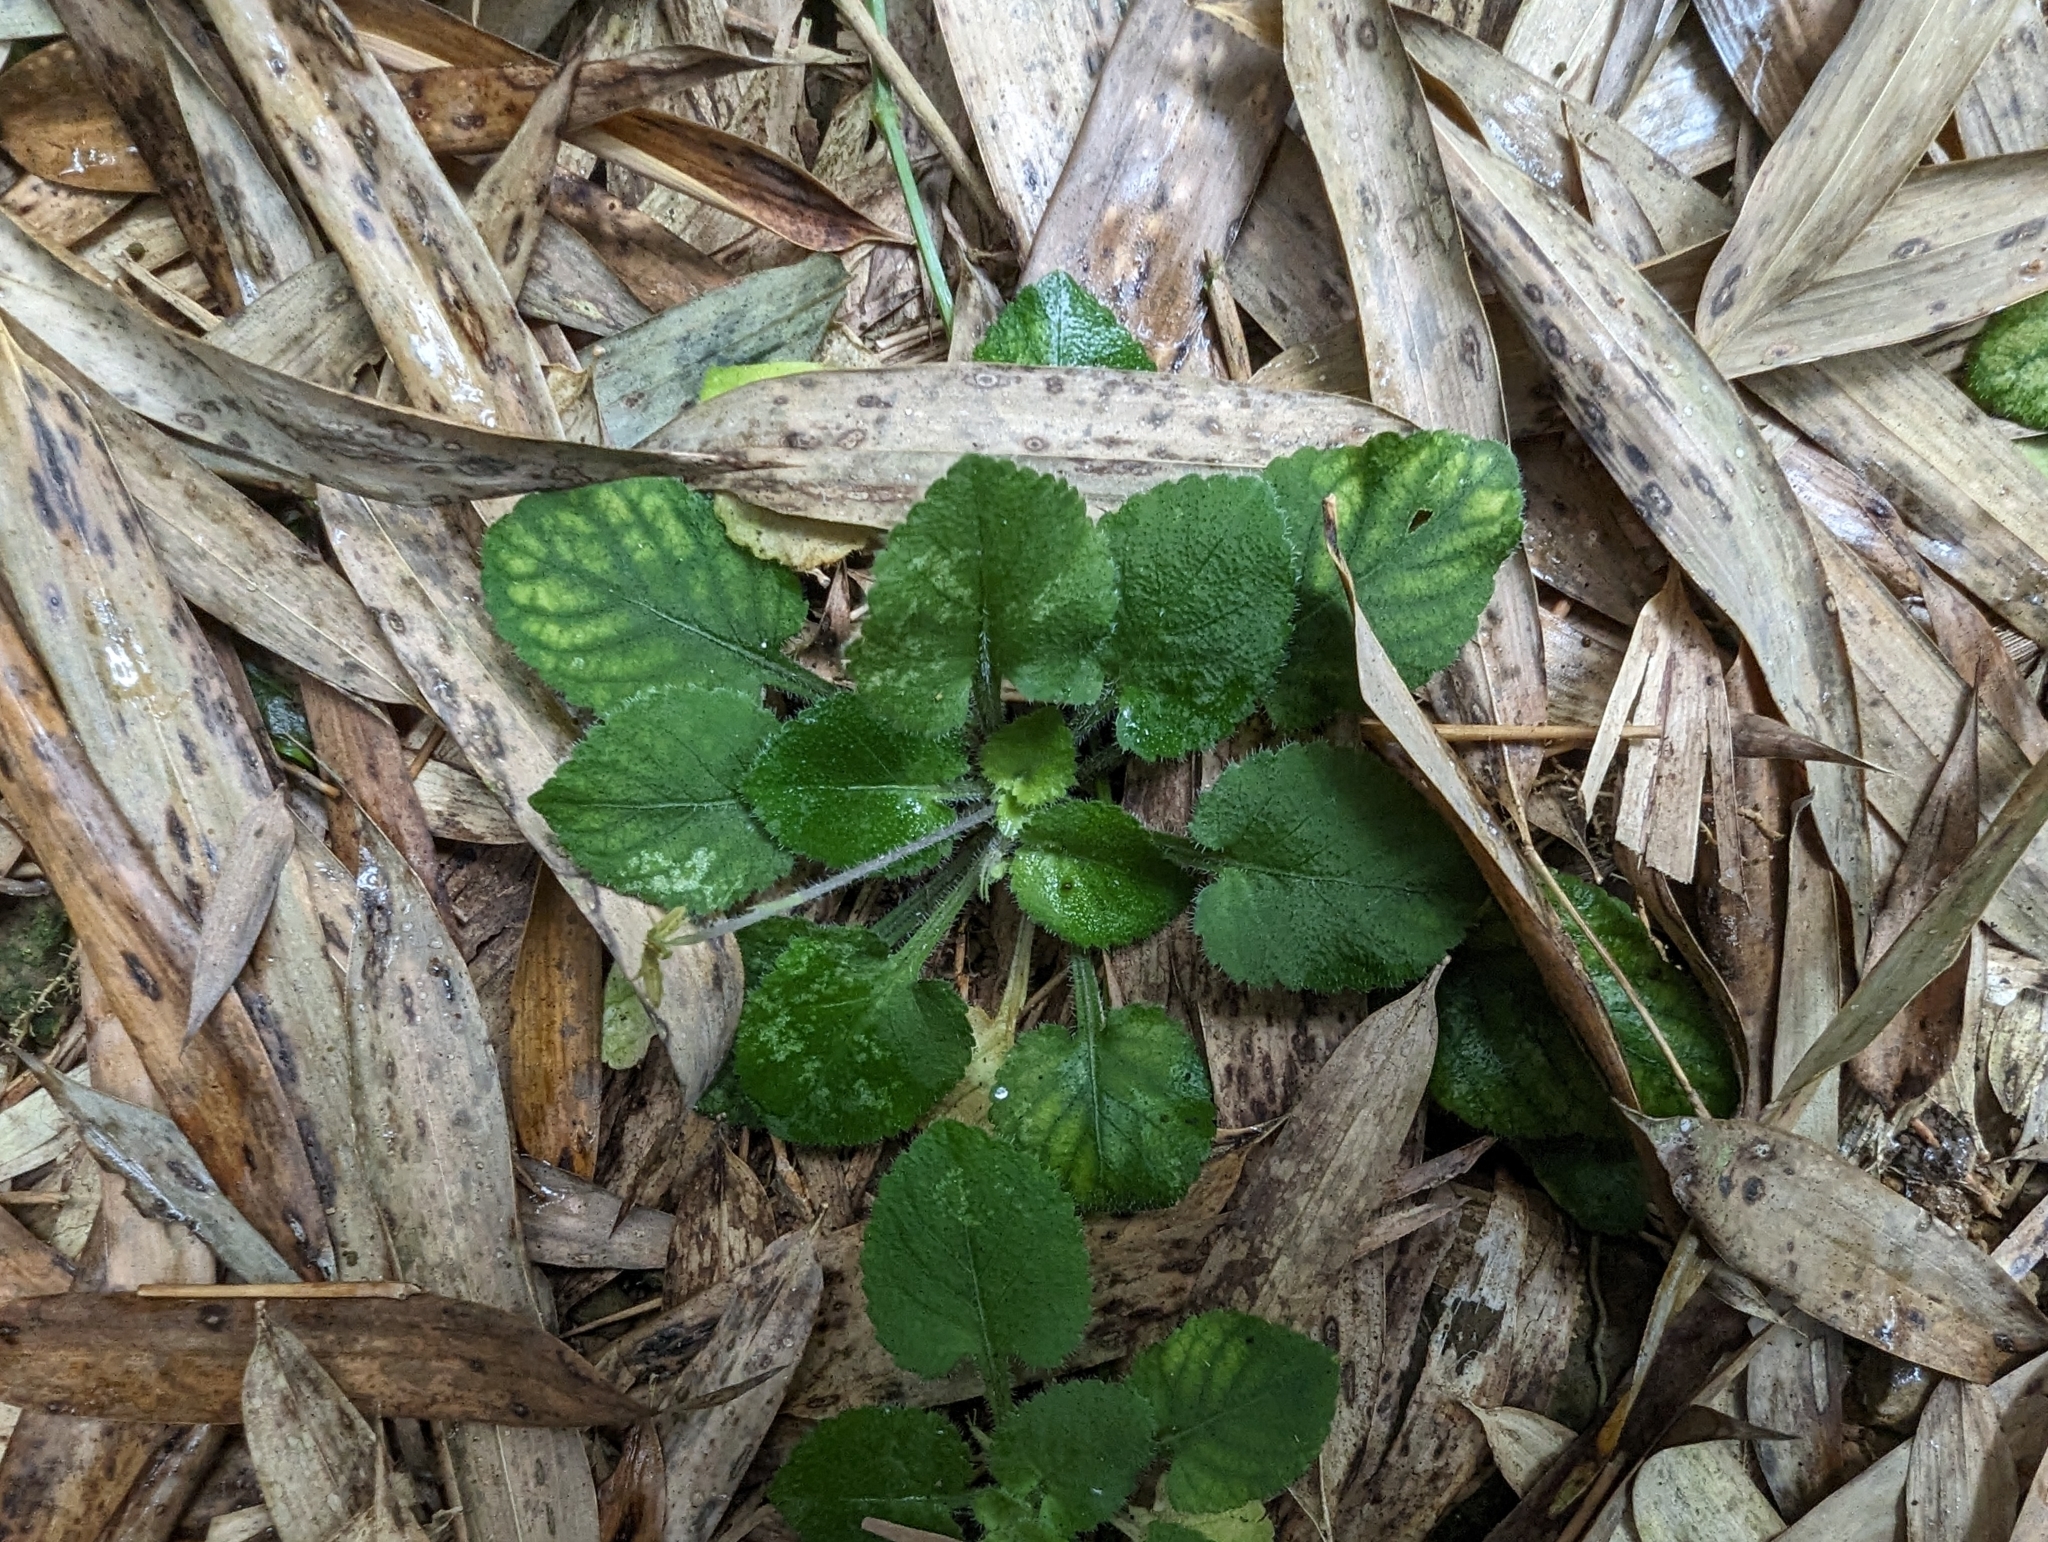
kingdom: Plantae
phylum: Tracheophyta
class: Magnoliopsida
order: Malpighiales
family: Violaceae
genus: Viola
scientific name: Viola diffusa
